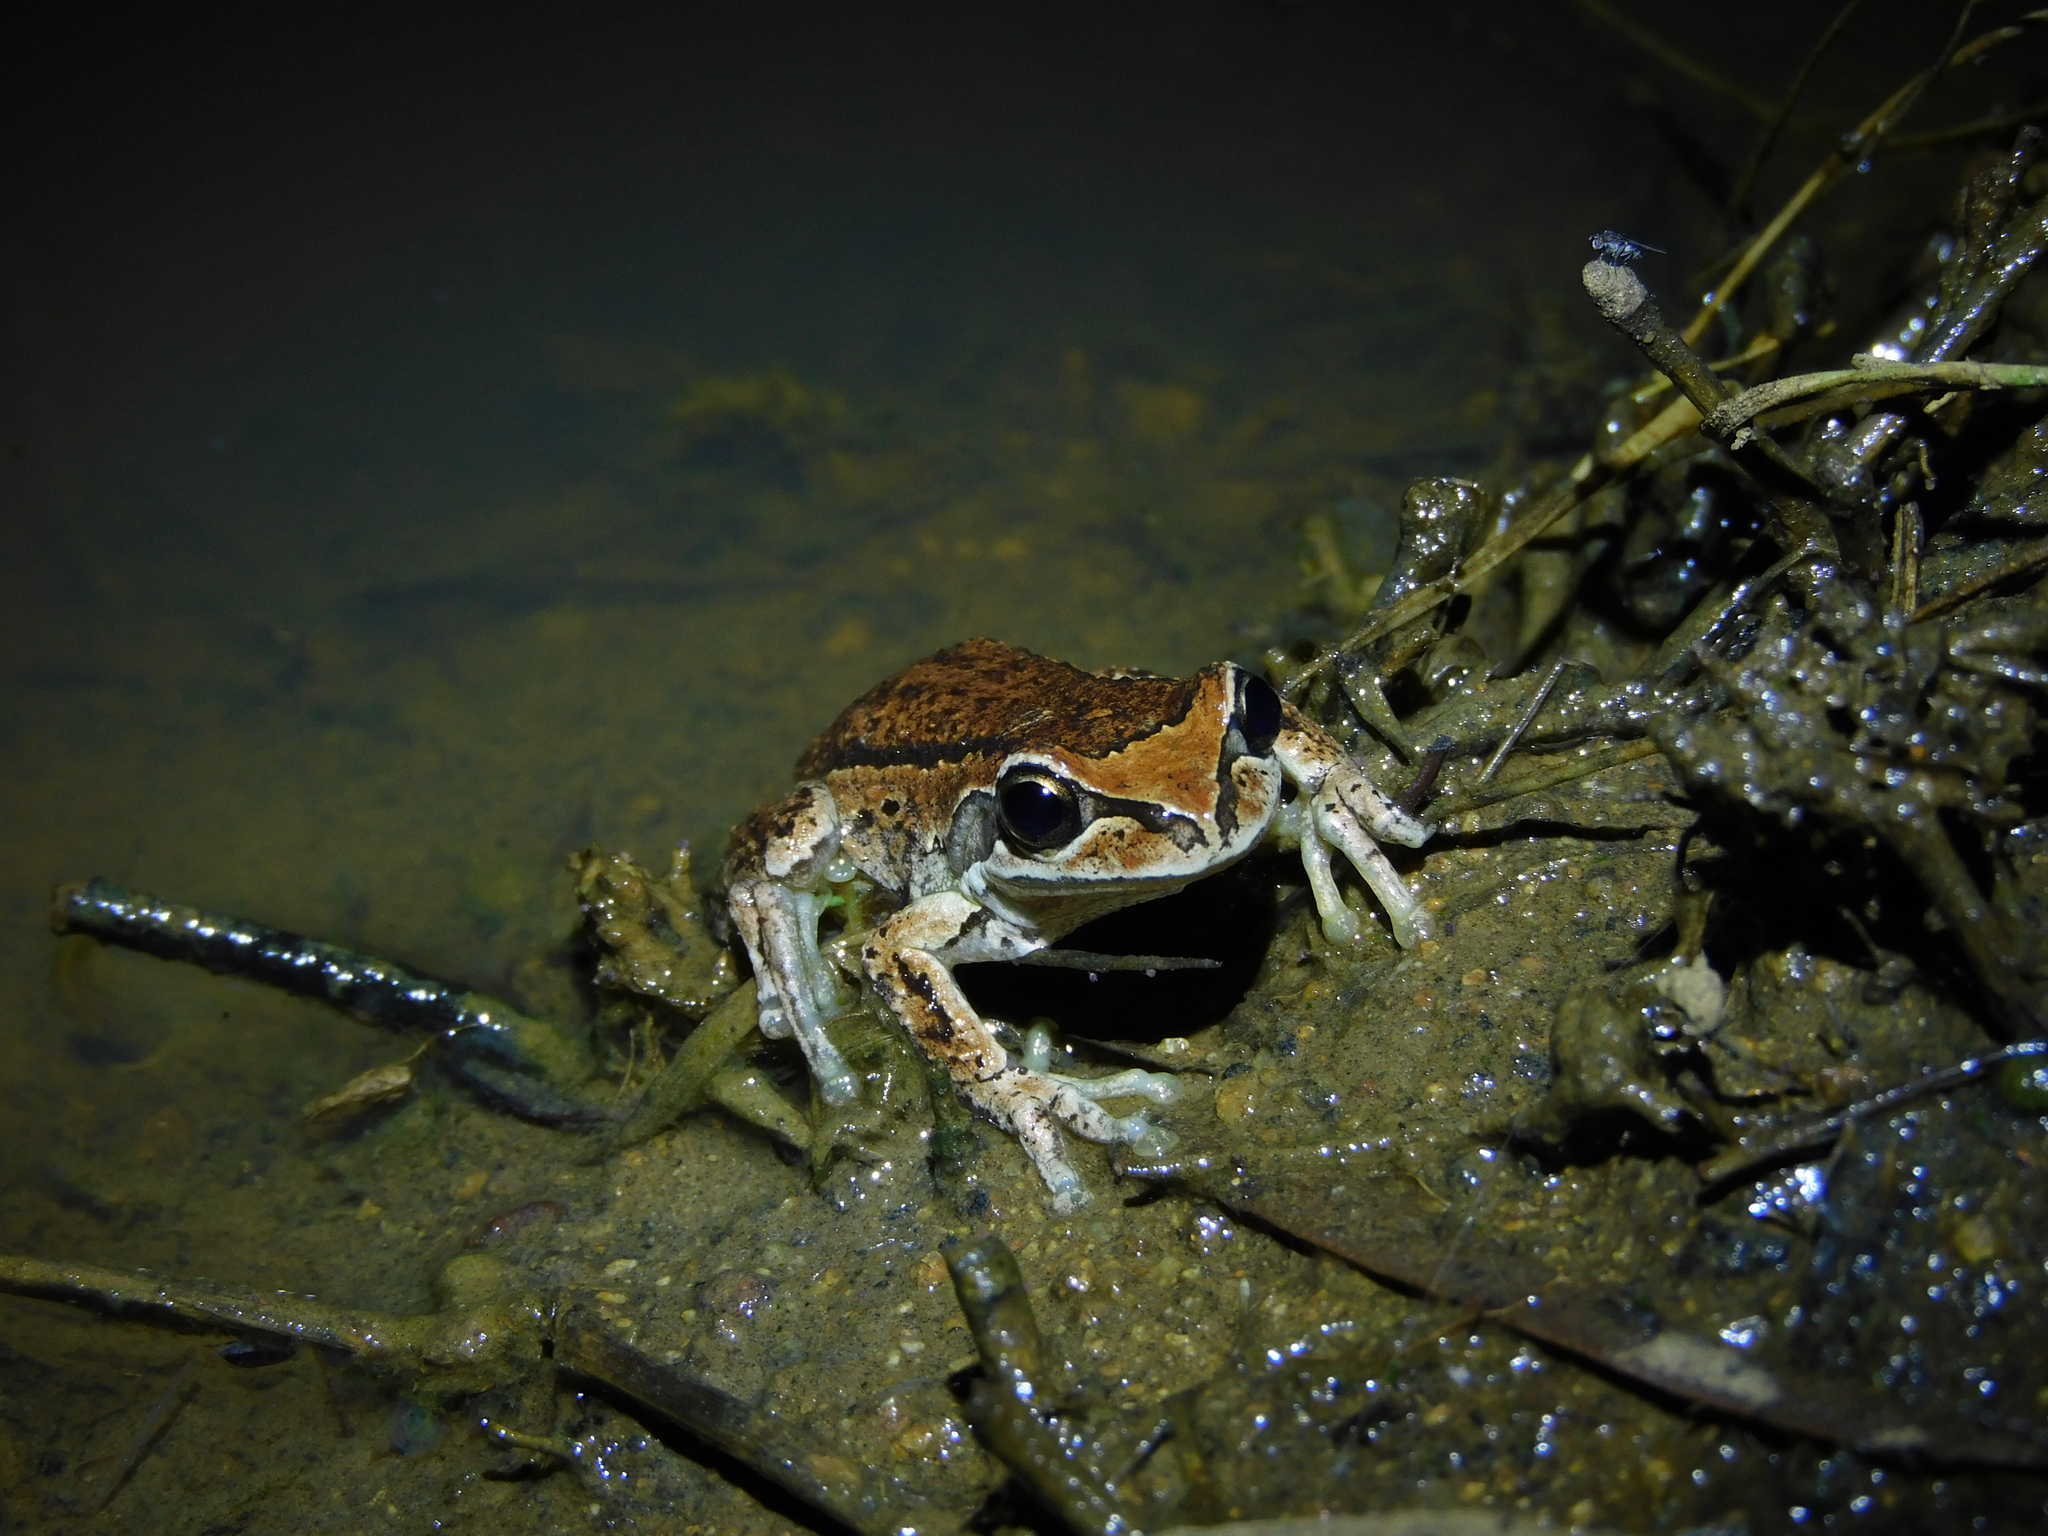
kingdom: Animalia
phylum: Chordata
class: Amphibia
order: Anura
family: Pelodryadidae
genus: Litoria
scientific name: Litoria ewingii
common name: Southern brown tree frog
